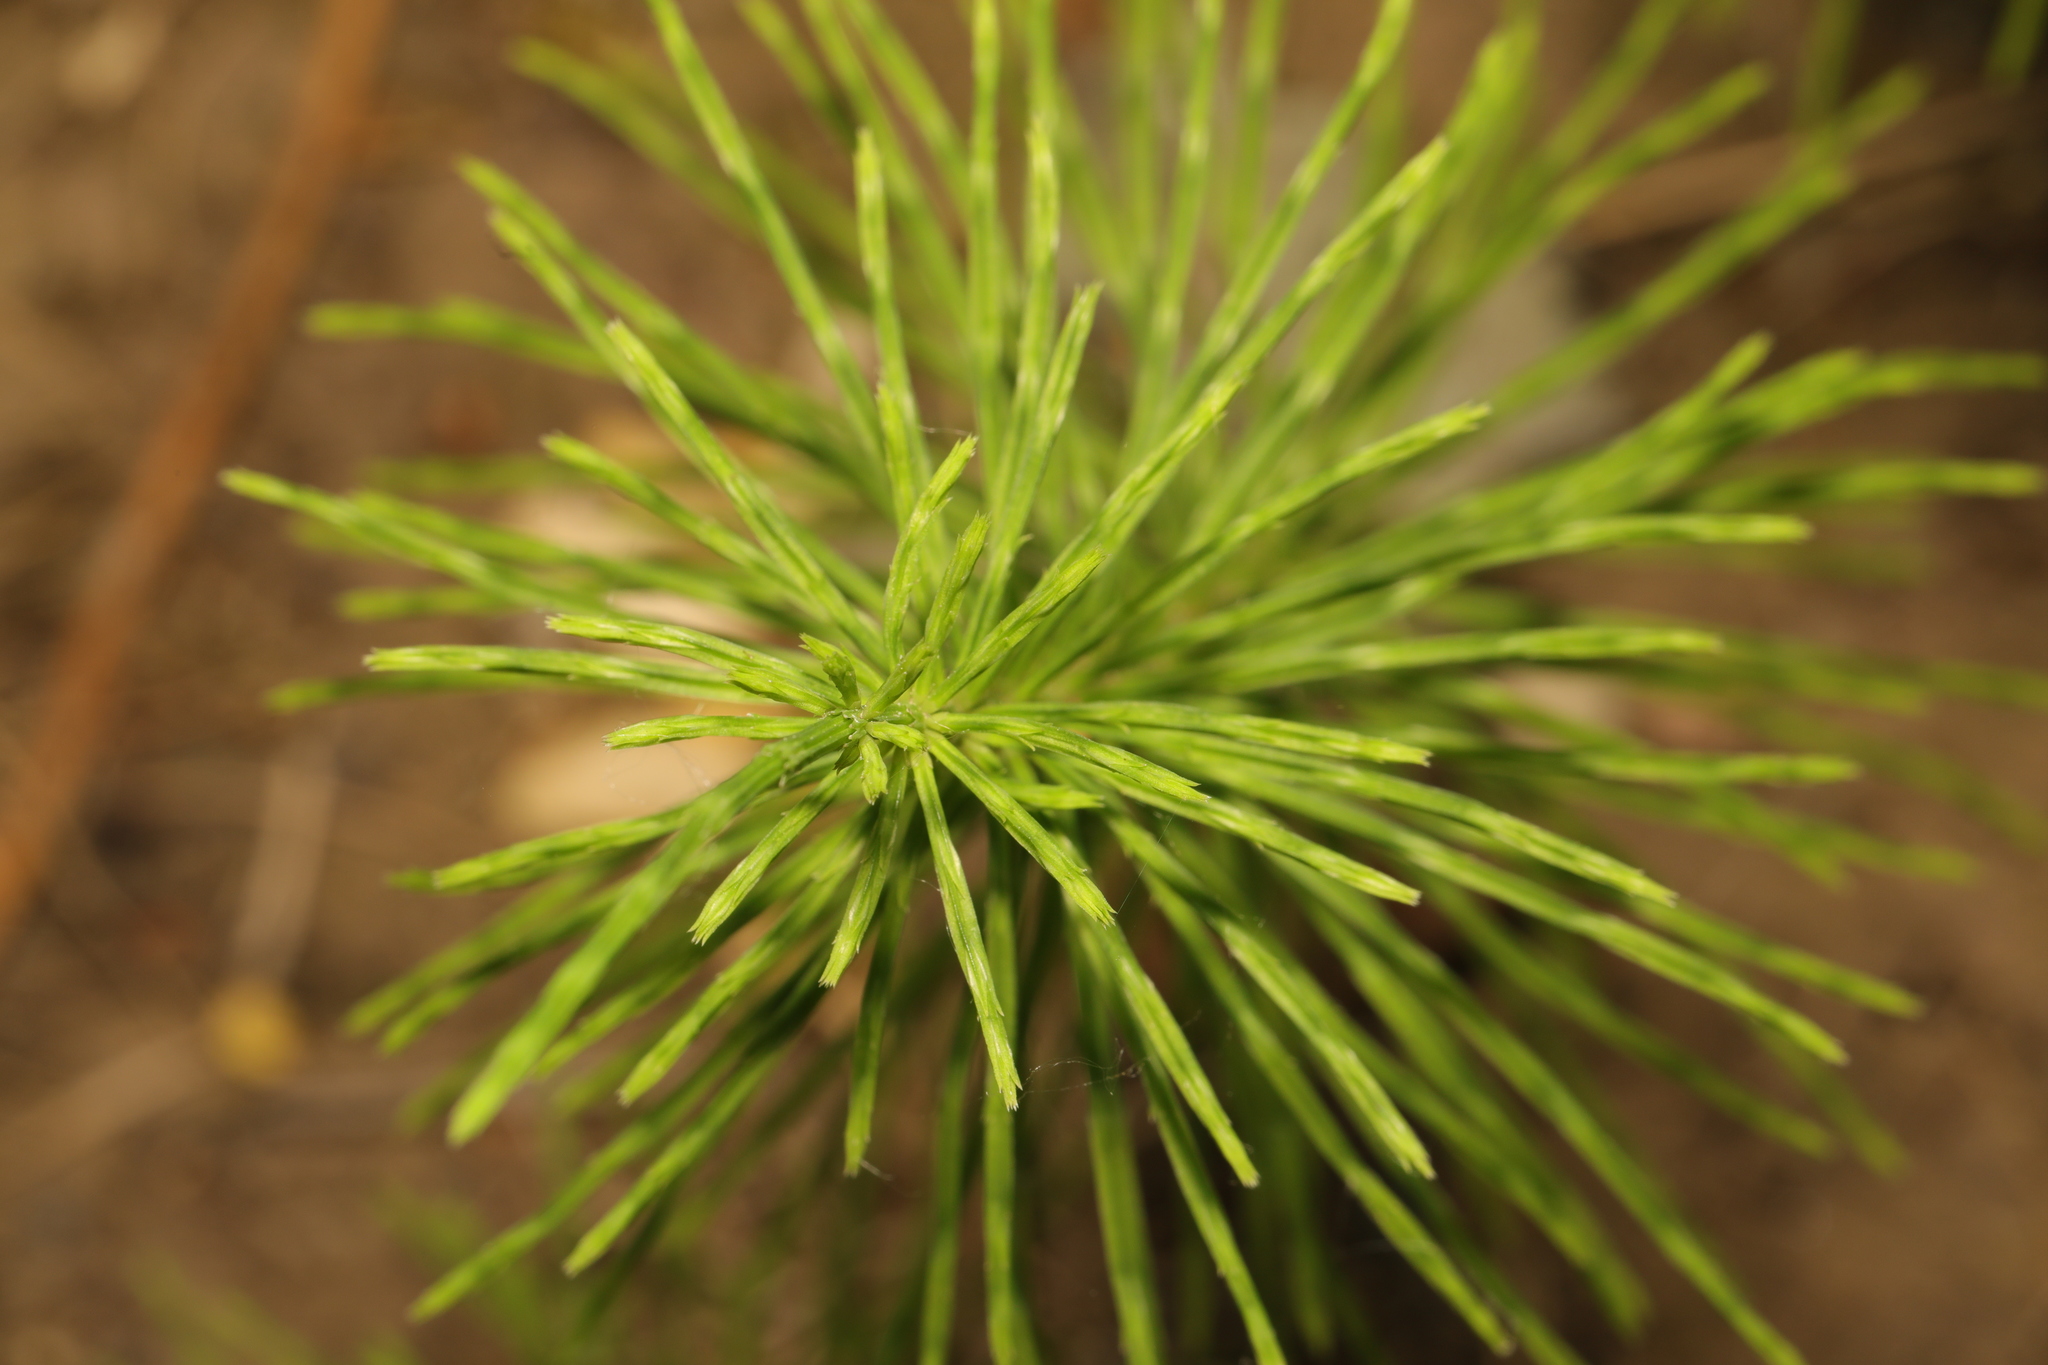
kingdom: Plantae
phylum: Tracheophyta
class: Polypodiopsida
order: Equisetales
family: Equisetaceae
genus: Equisetum
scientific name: Equisetum arvense
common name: Field horsetail
